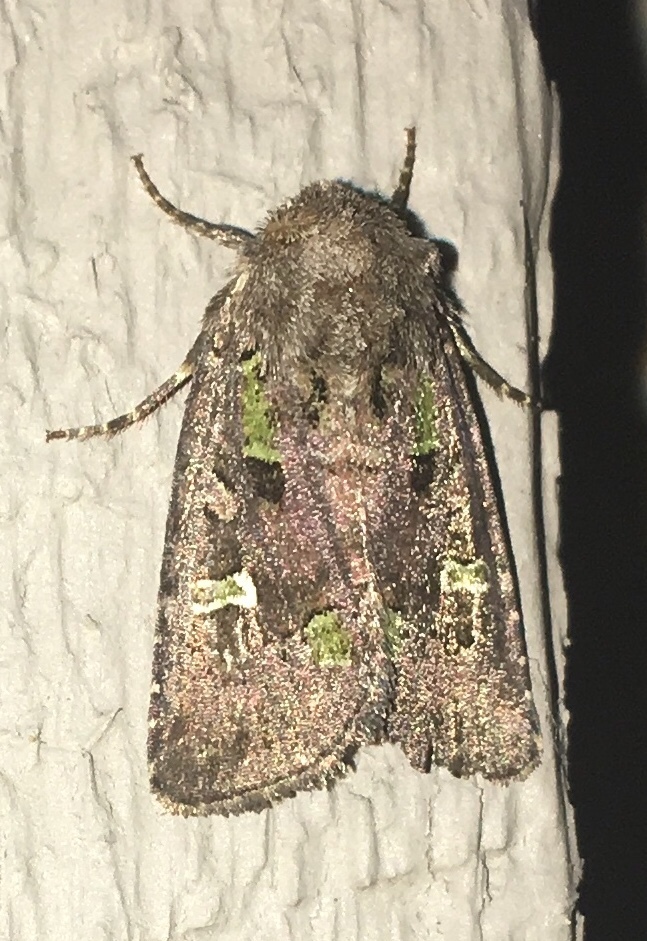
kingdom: Animalia
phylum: Arthropoda
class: Insecta
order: Lepidoptera
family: Noctuidae
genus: Lacinipolia
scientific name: Lacinipolia renigera
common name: Kidney-spotted minor
